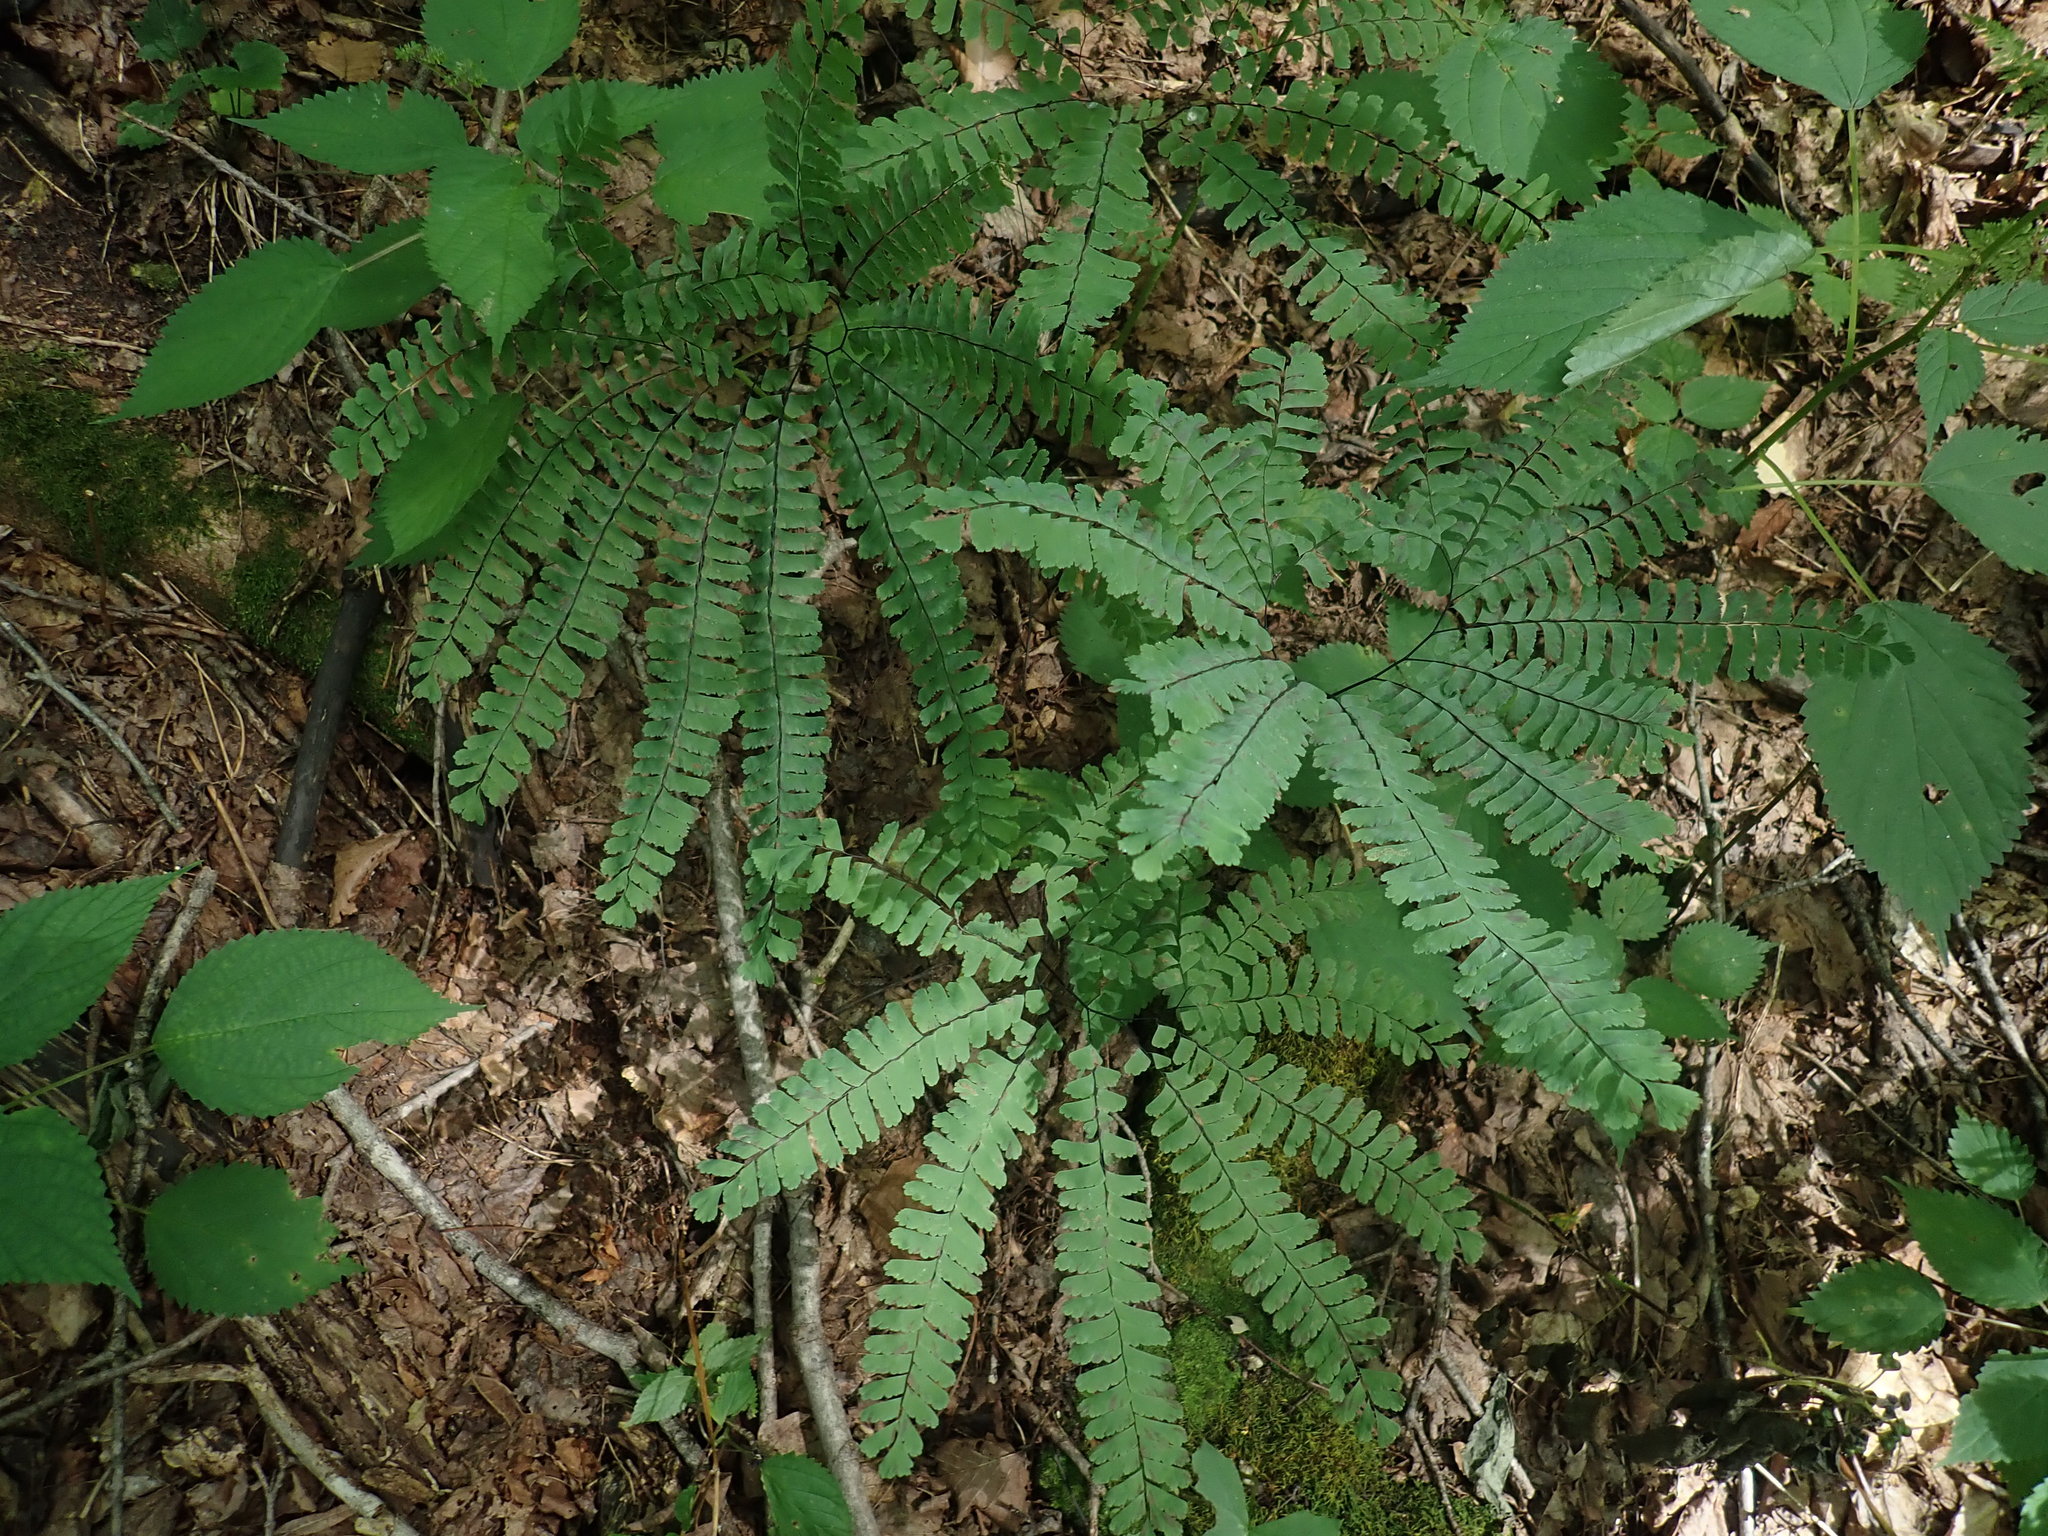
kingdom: Plantae
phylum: Tracheophyta
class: Polypodiopsida
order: Polypodiales
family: Pteridaceae
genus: Adiantum
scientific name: Adiantum pedatum
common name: Five-finger fern
